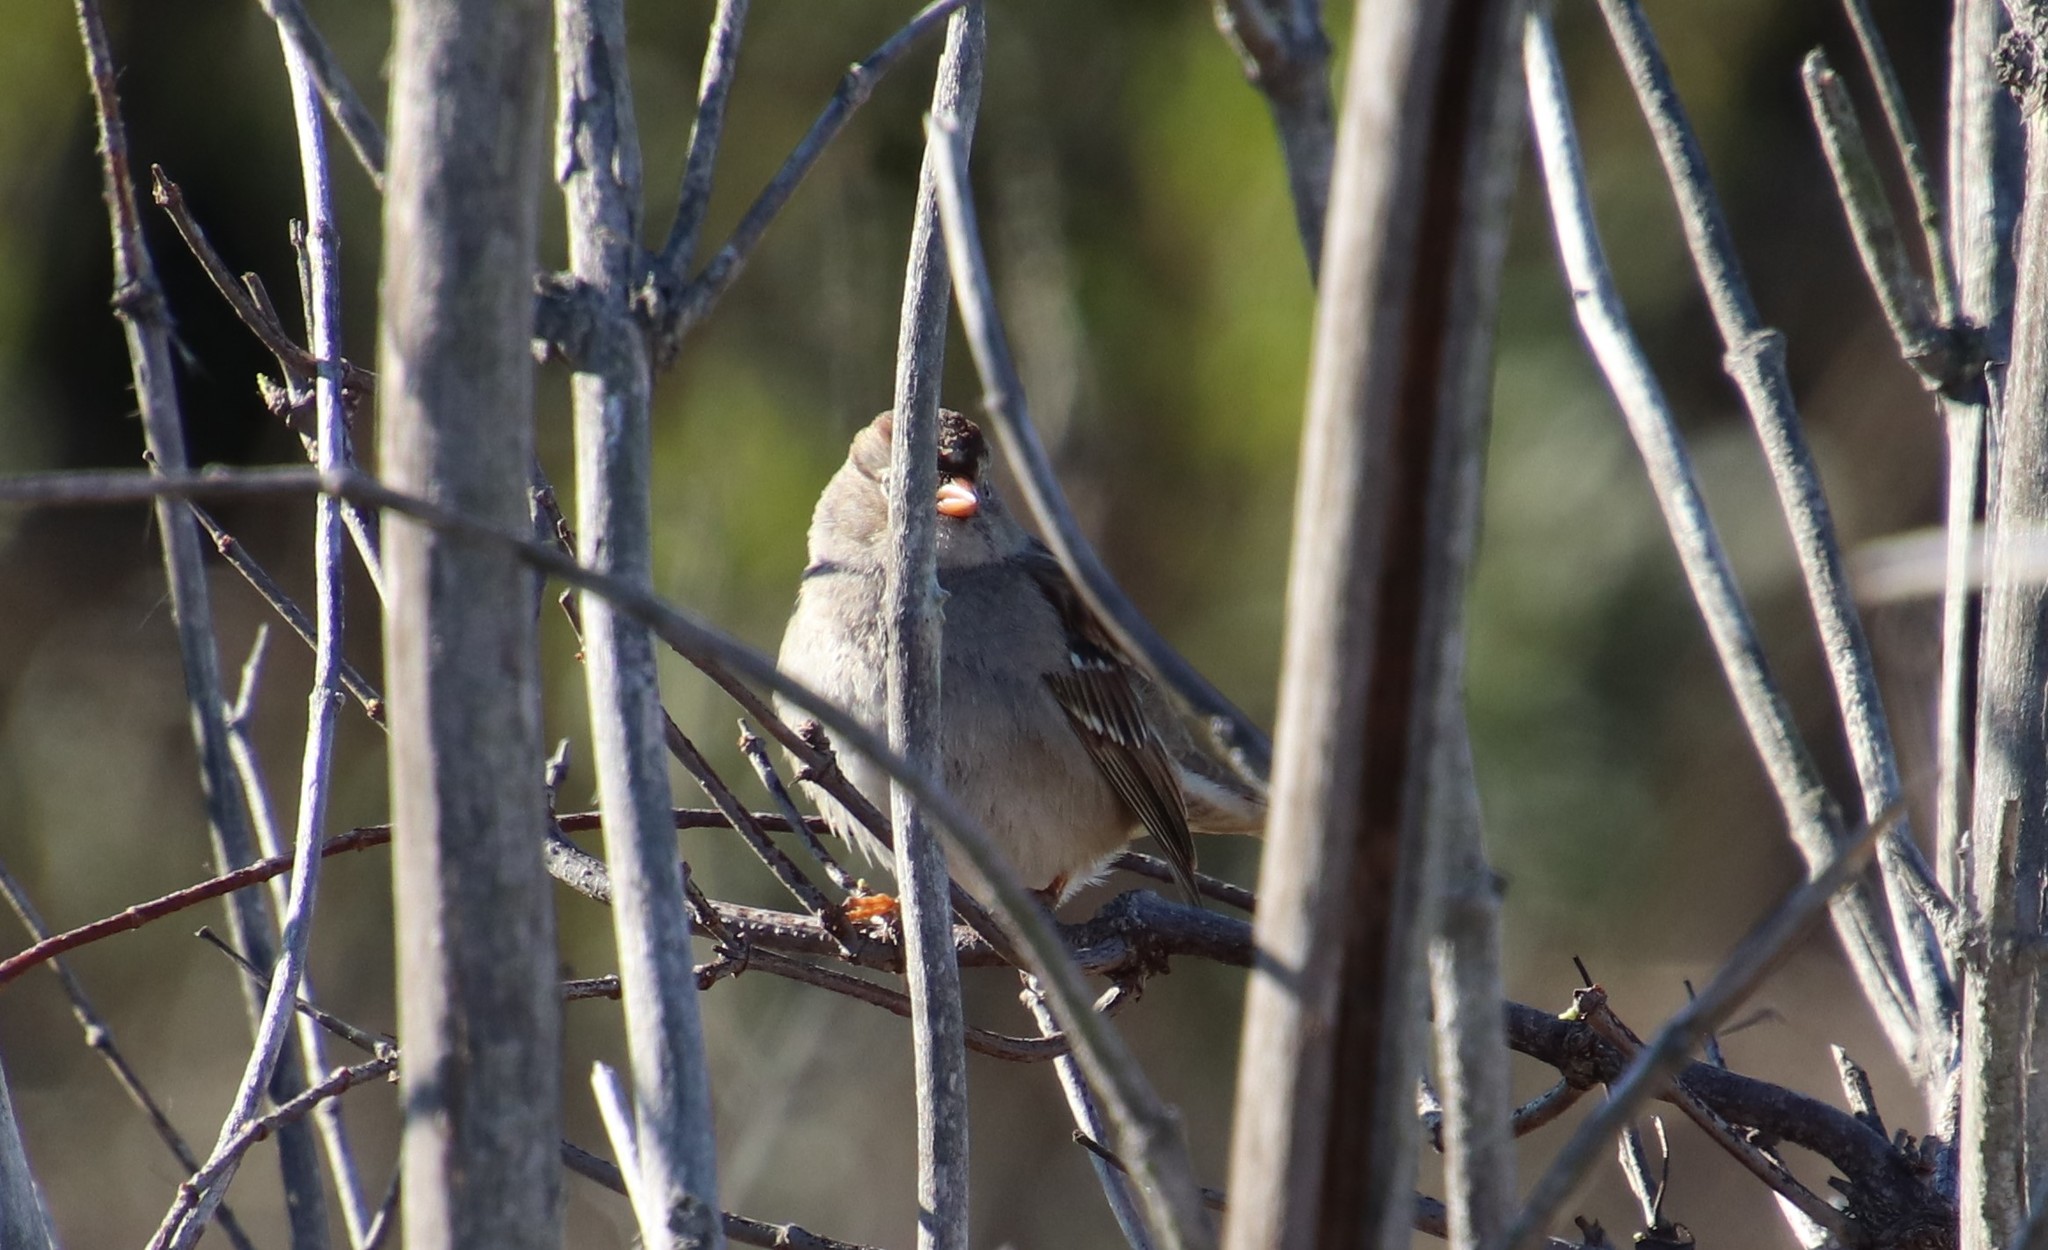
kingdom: Animalia
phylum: Chordata
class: Aves
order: Passeriformes
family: Passerellidae
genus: Zonotrichia
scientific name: Zonotrichia leucophrys
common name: White-crowned sparrow
